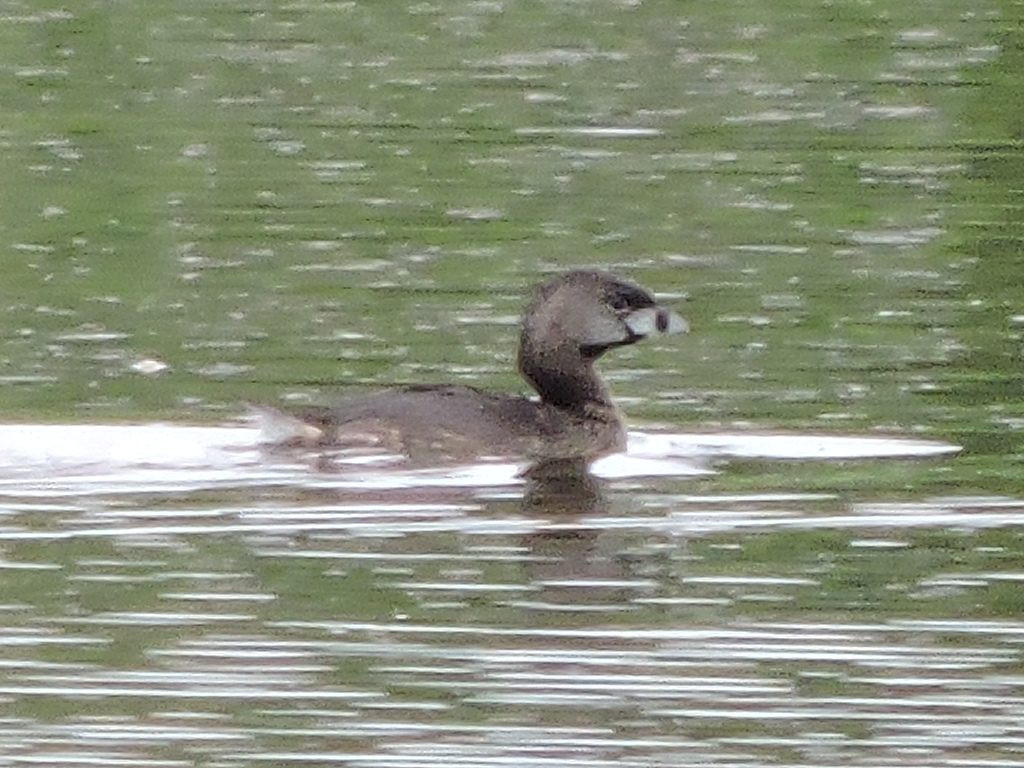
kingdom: Animalia
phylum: Chordata
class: Aves
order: Podicipediformes
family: Podicipedidae
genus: Podilymbus
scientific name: Podilymbus podiceps
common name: Pied-billed grebe
